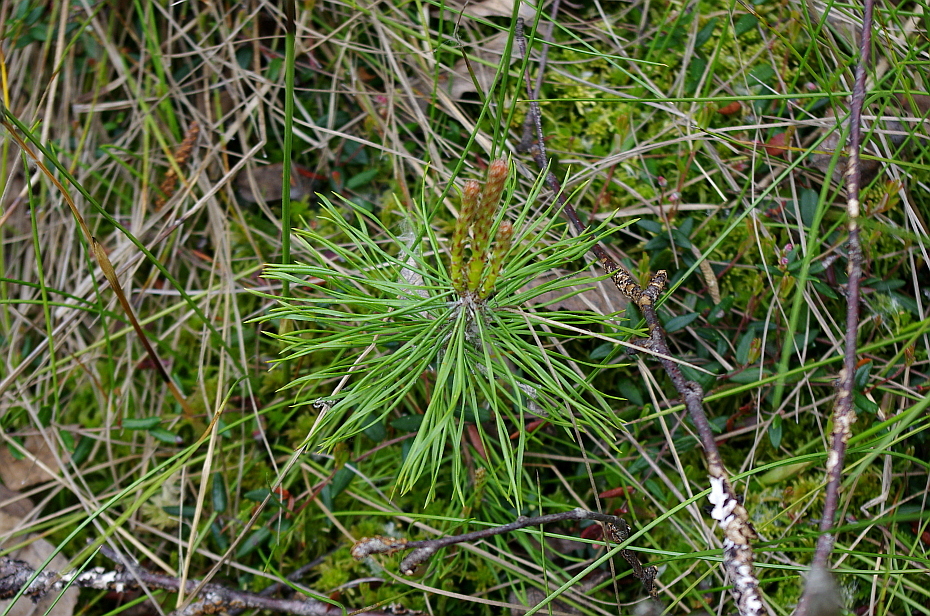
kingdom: Plantae
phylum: Tracheophyta
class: Pinopsida
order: Pinales
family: Pinaceae
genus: Pinus
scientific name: Pinus sylvestris
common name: Scots pine
